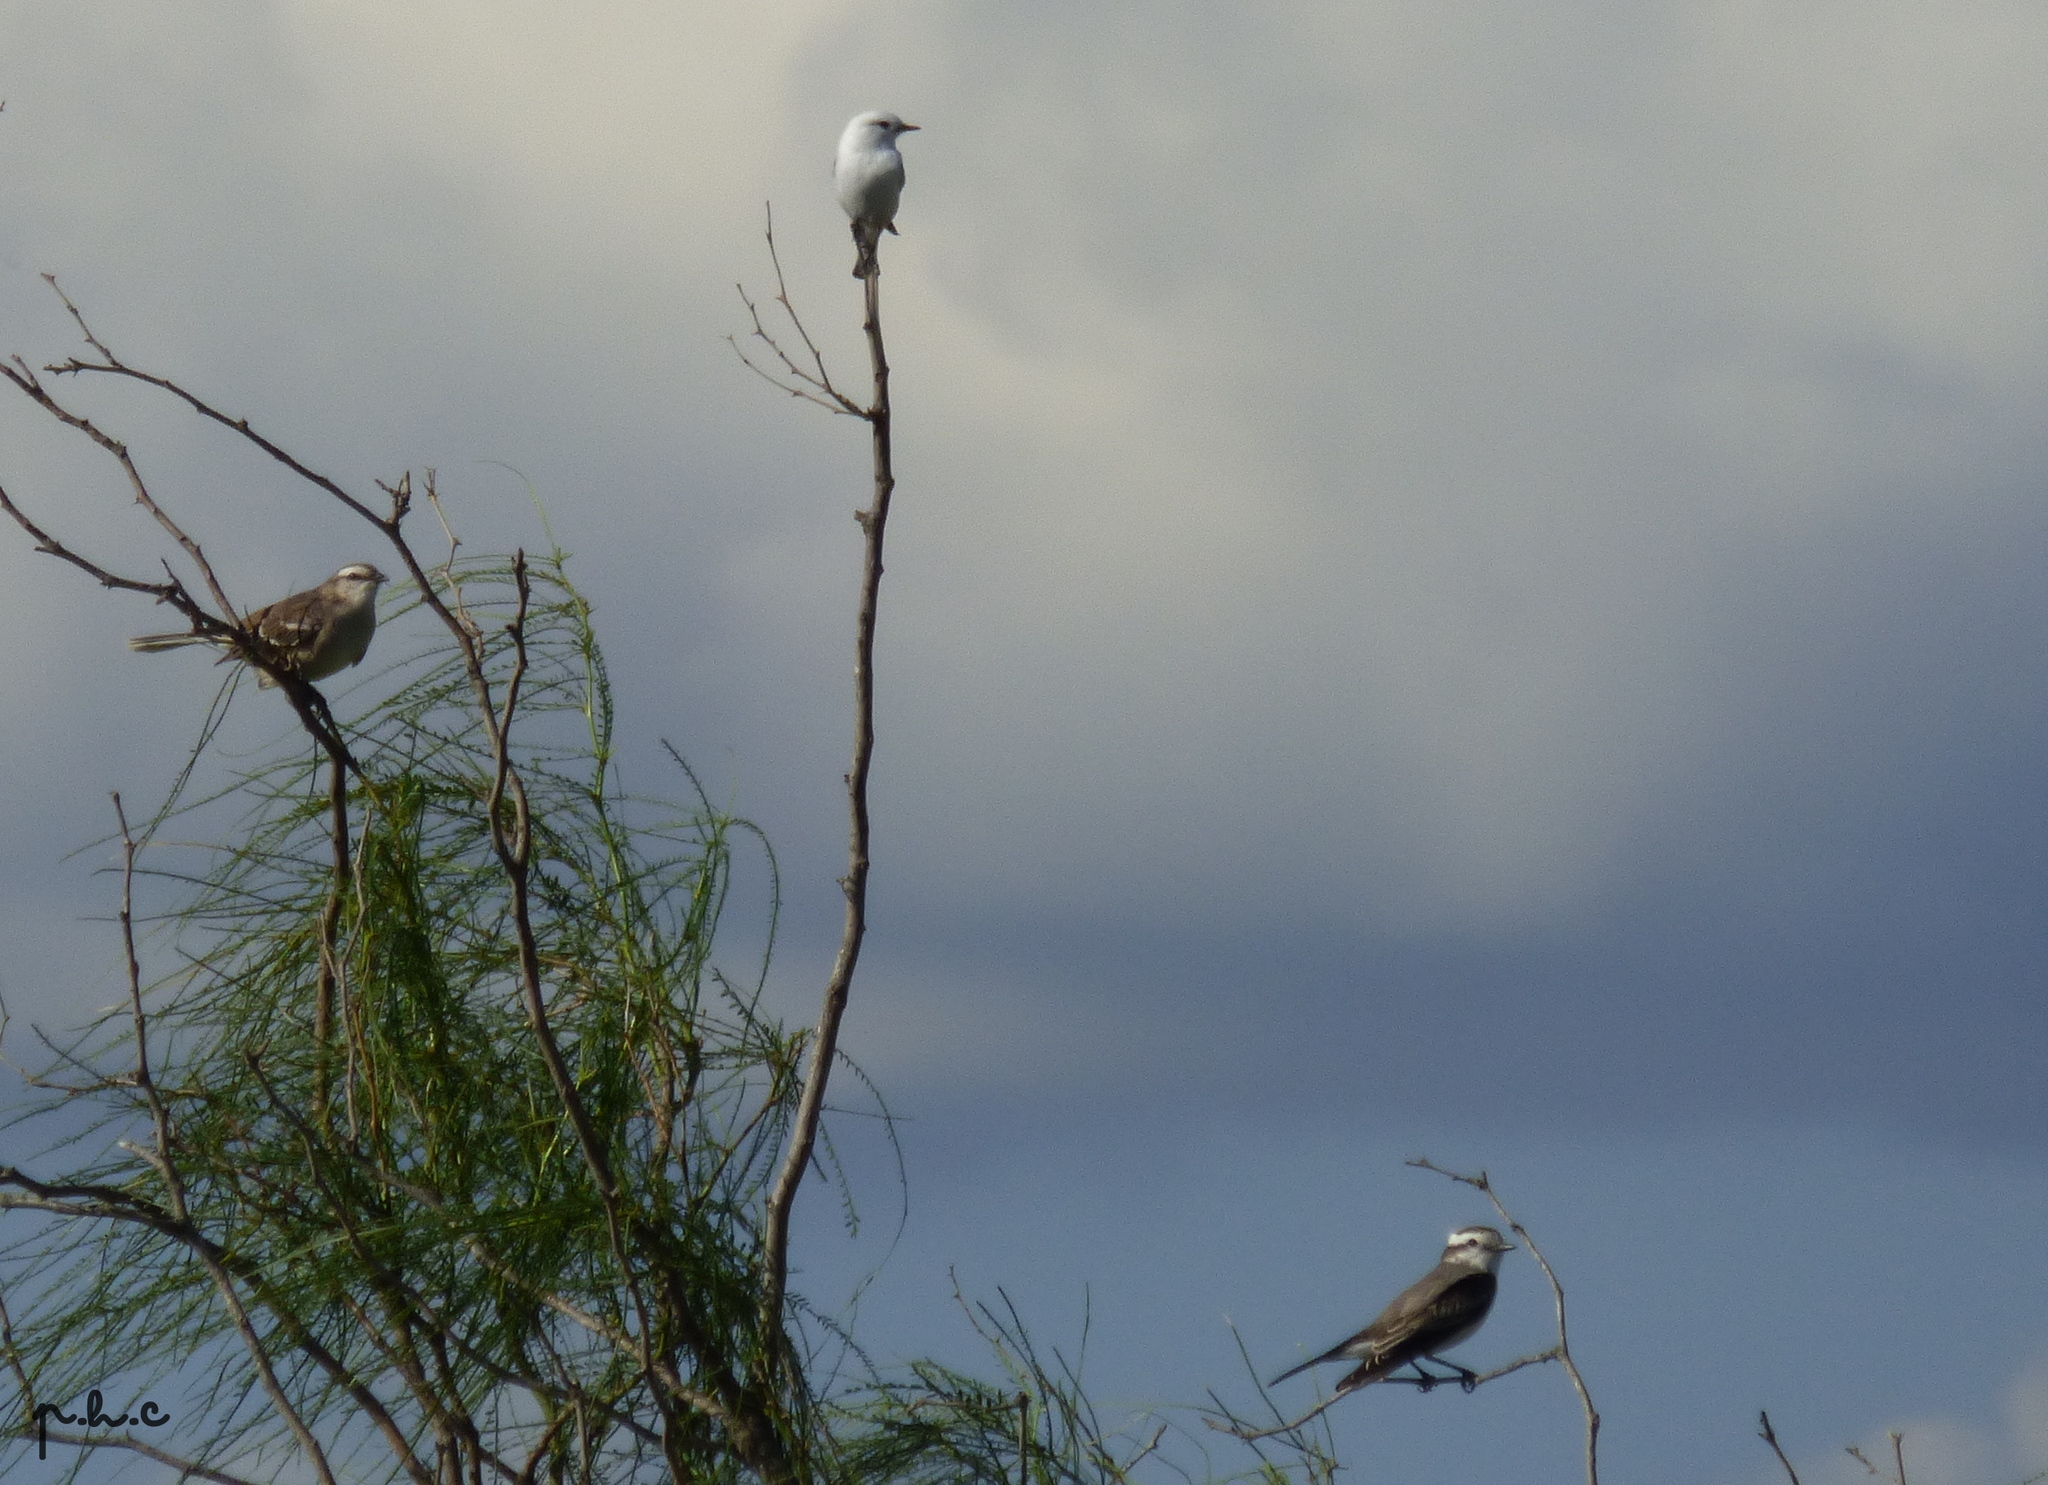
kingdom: Animalia
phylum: Chordata
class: Aves
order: Passeriformes
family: Tyrannidae
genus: Xolmis
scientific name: Xolmis coronatus
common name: Black-crowned monjita
